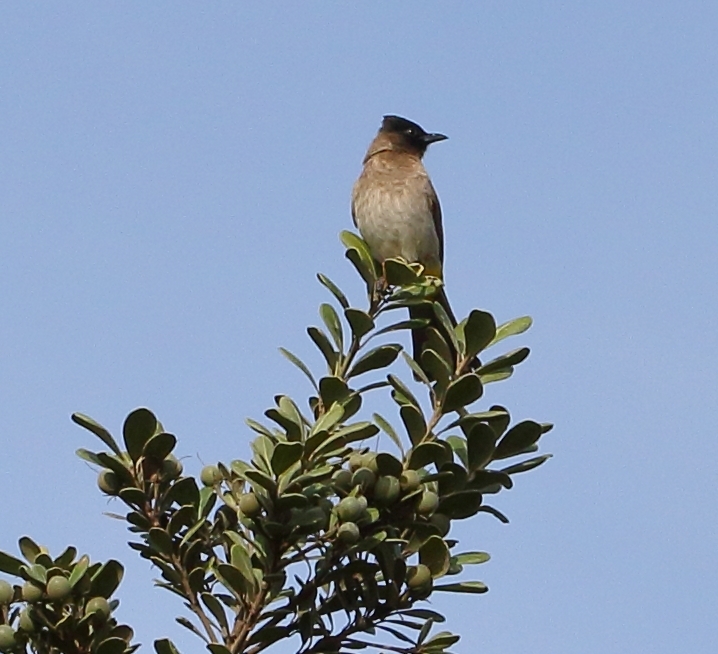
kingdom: Animalia
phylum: Chordata
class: Aves
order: Passeriformes
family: Pycnonotidae
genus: Pycnonotus
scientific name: Pycnonotus barbatus
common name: Common bulbul
